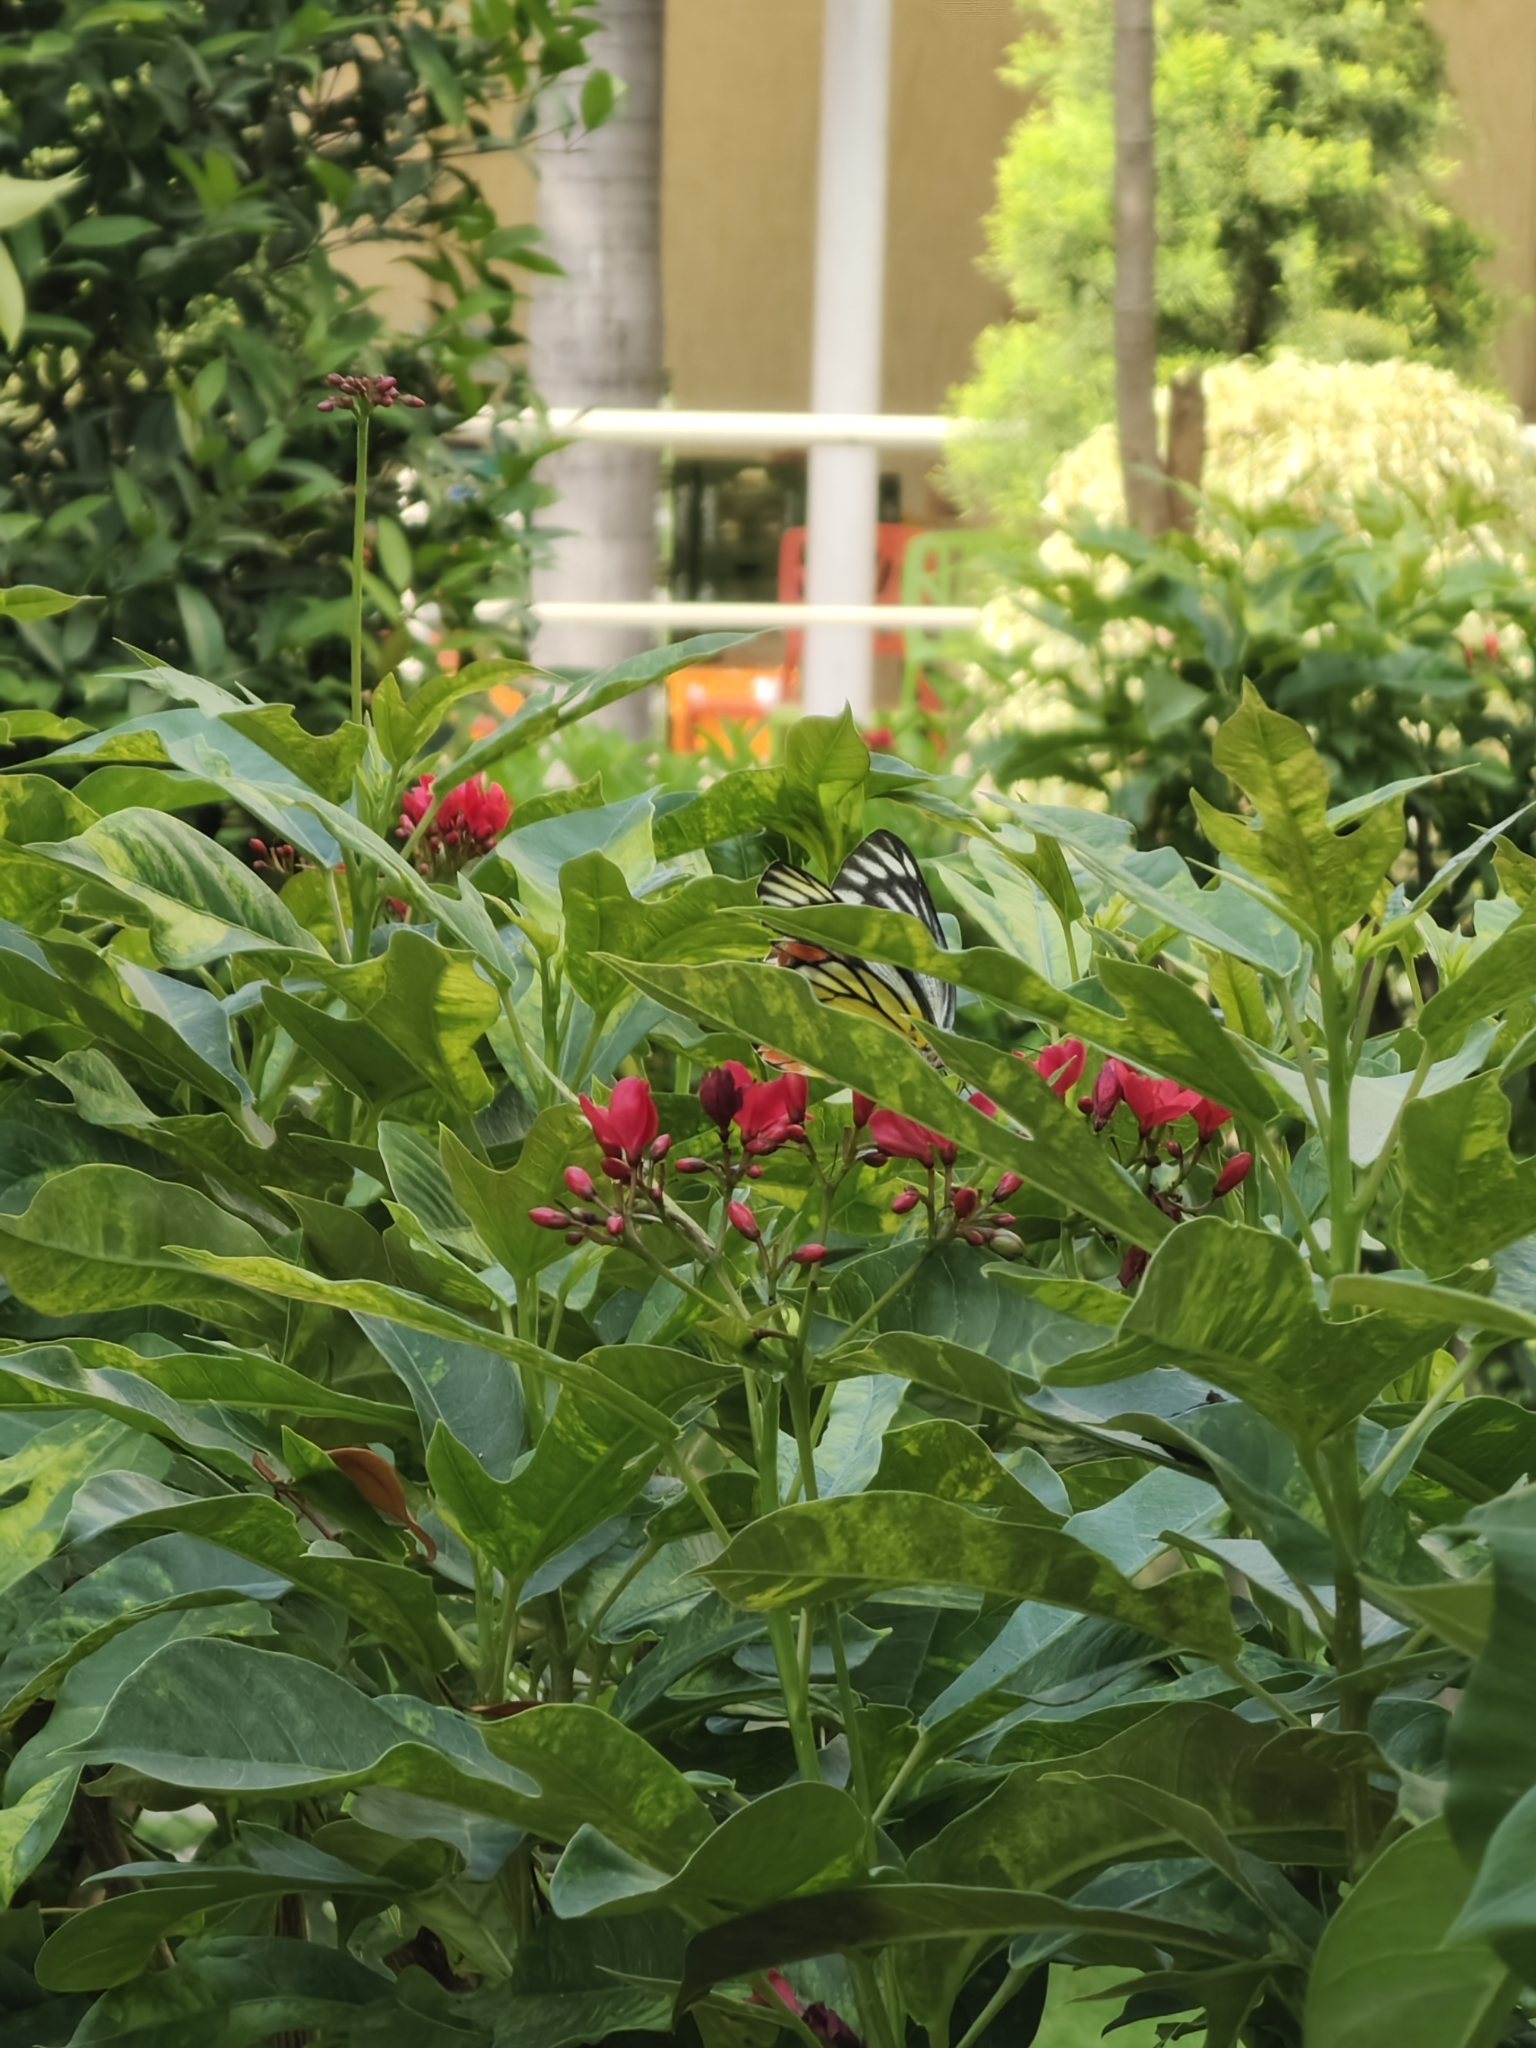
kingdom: Animalia
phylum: Arthropoda
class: Insecta
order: Lepidoptera
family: Pieridae
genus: Delias
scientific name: Delias eucharis
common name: Common jezebel
